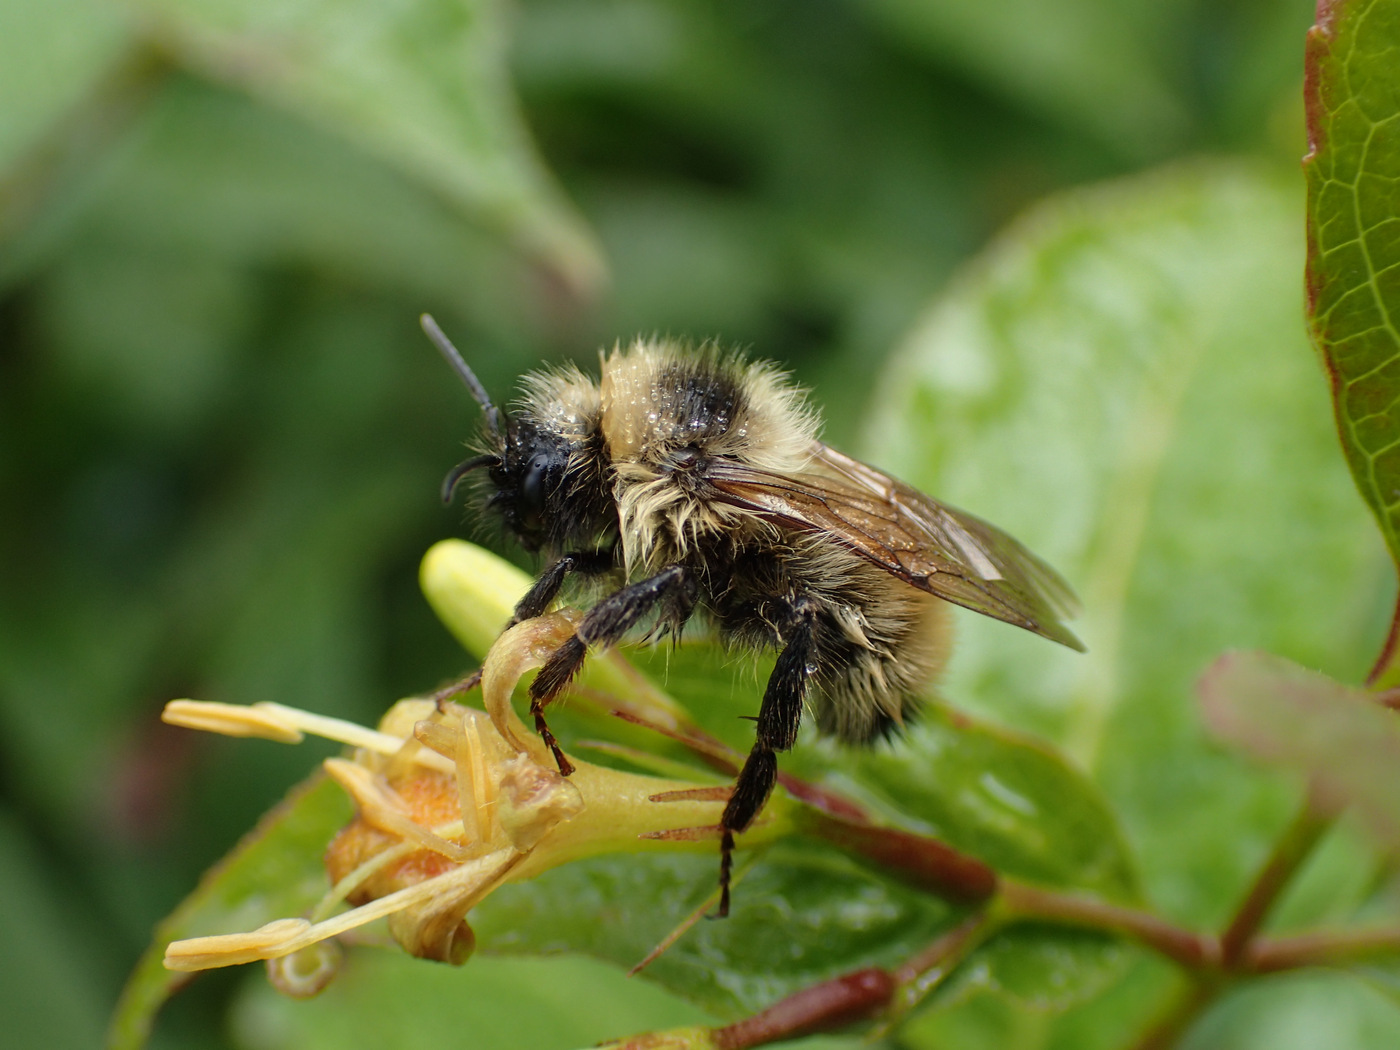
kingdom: Animalia
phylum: Arthropoda
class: Insecta
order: Hymenoptera
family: Apidae
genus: Bombus
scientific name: Bombus flavidus
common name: Fernald cuckoo bumble bee
